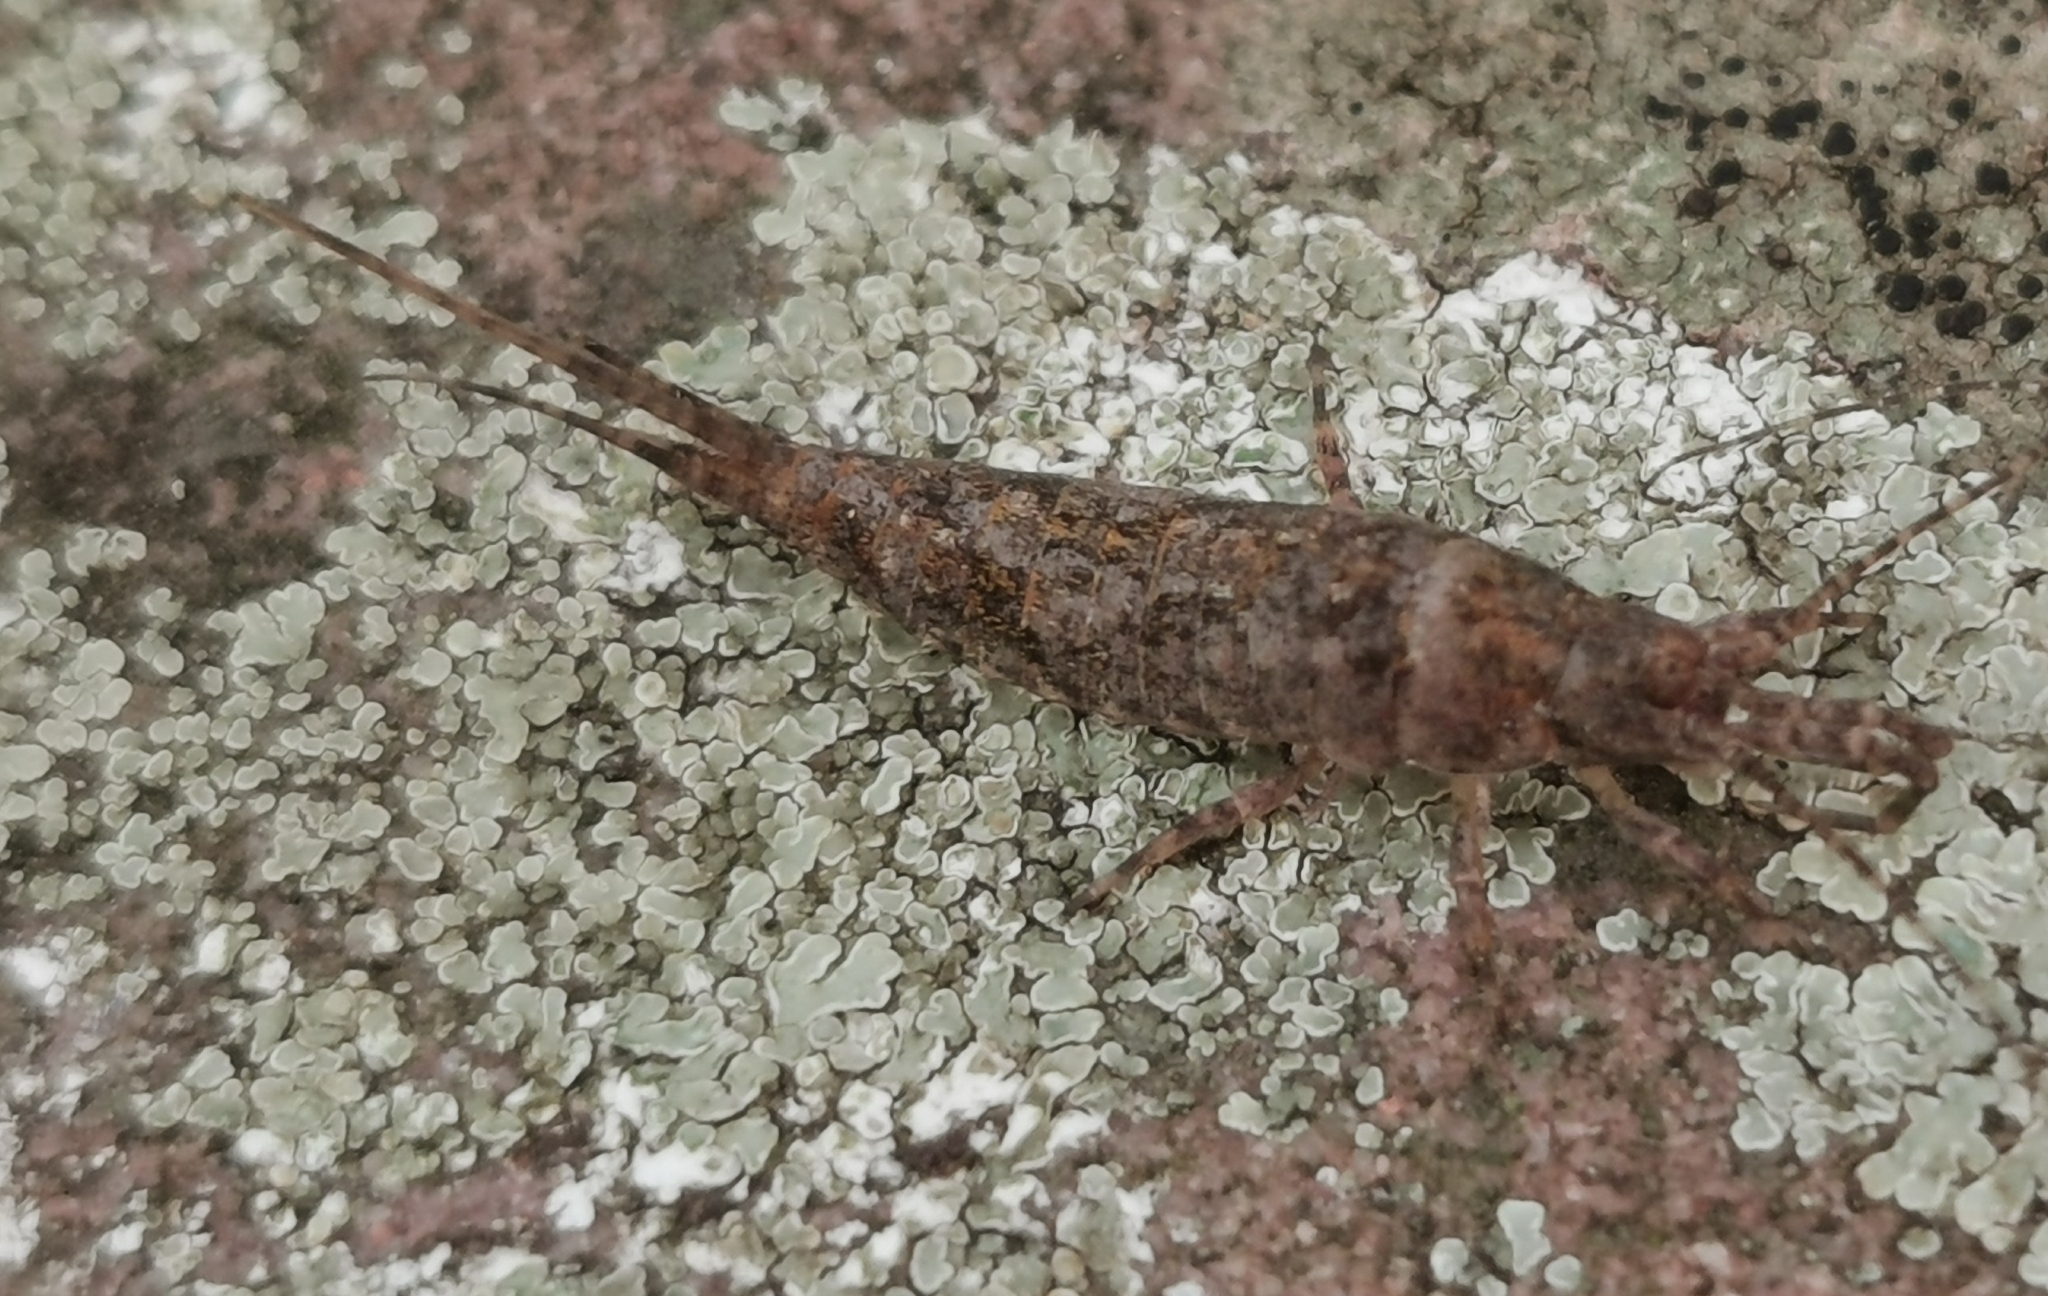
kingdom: Animalia
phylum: Arthropoda
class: Insecta
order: Archaeognatha
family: Machilidae
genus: Machilis
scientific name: Machilis germanica
